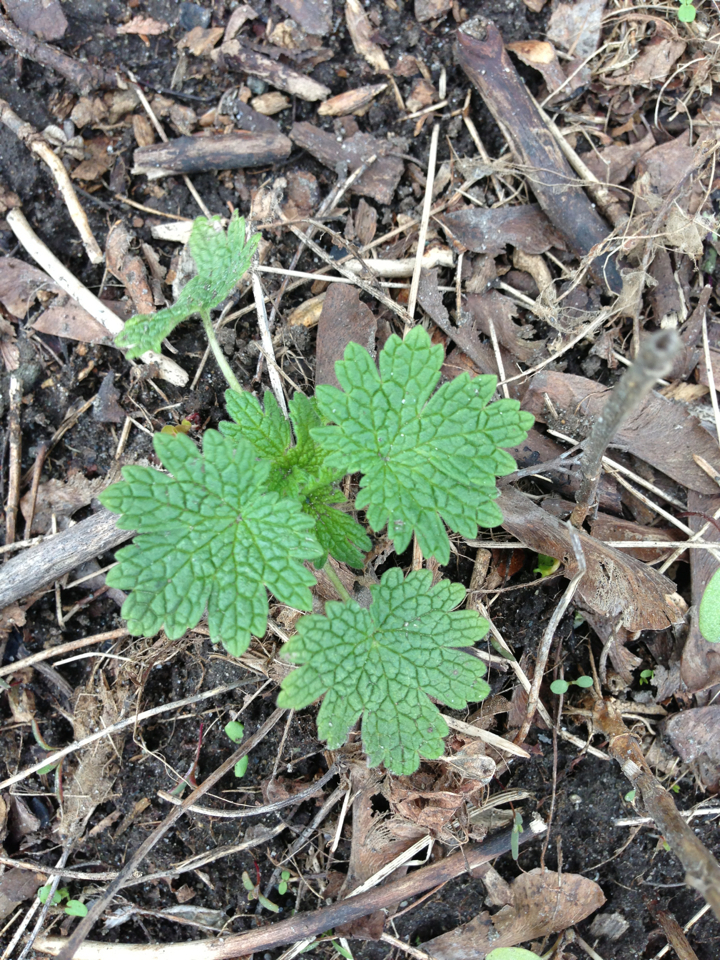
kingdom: Plantae
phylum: Tracheophyta
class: Magnoliopsida
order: Lamiales
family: Lamiaceae
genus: Leonurus
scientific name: Leonurus cardiaca
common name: Motherwort
